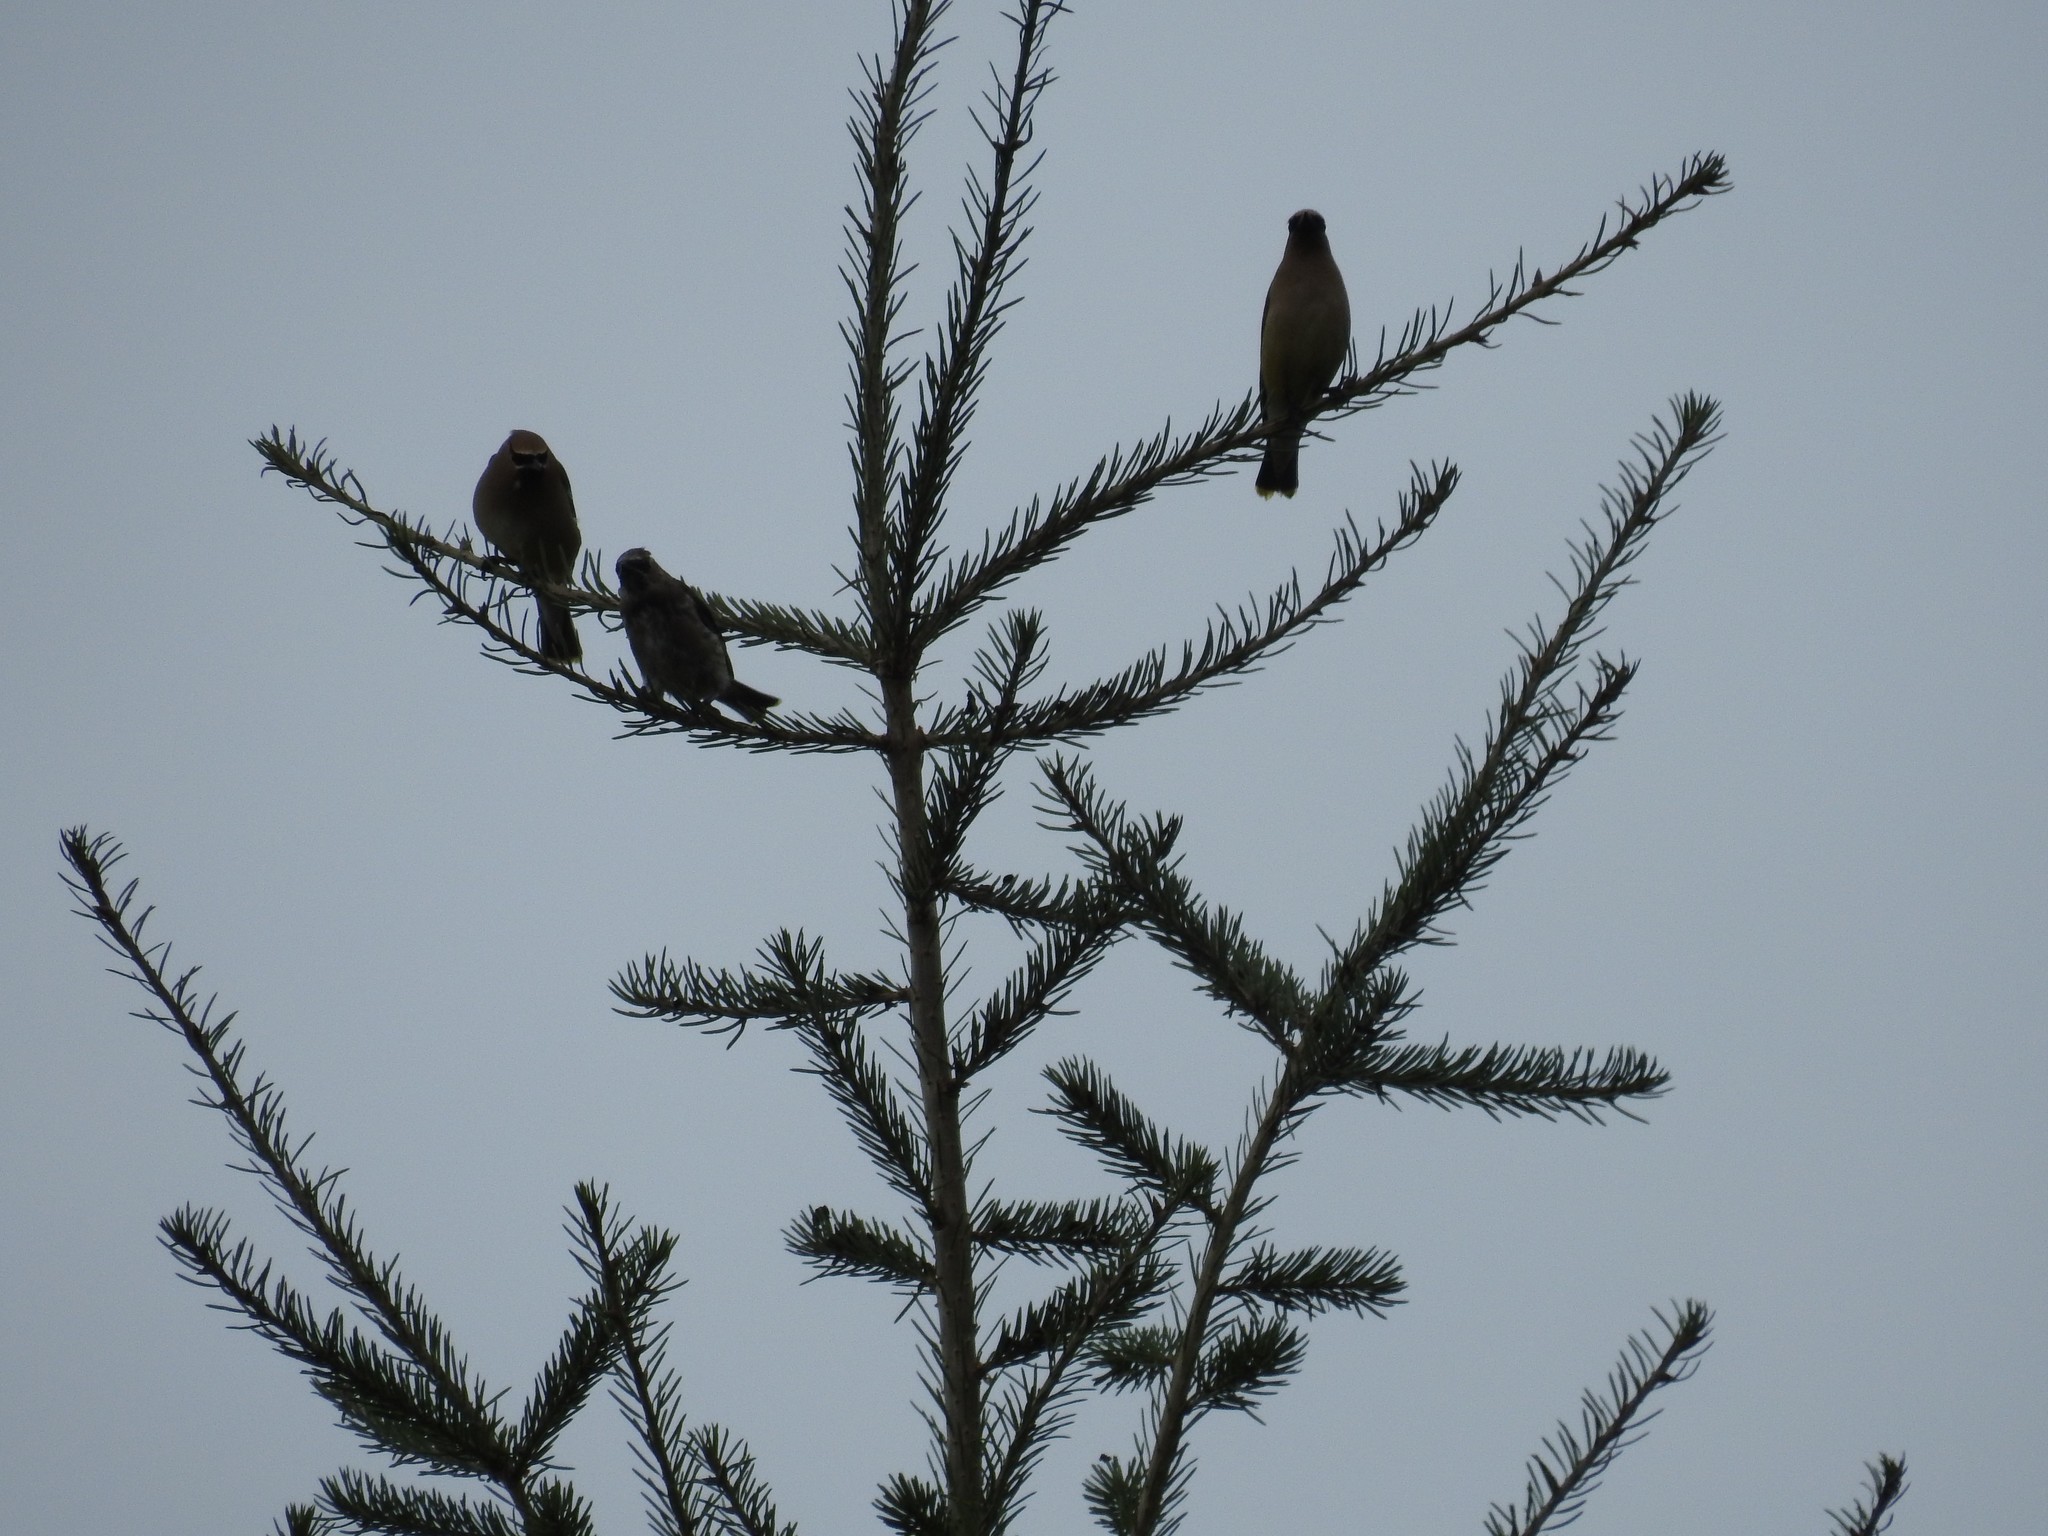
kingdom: Animalia
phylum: Chordata
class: Aves
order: Passeriformes
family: Bombycillidae
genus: Bombycilla
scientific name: Bombycilla cedrorum
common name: Cedar waxwing
